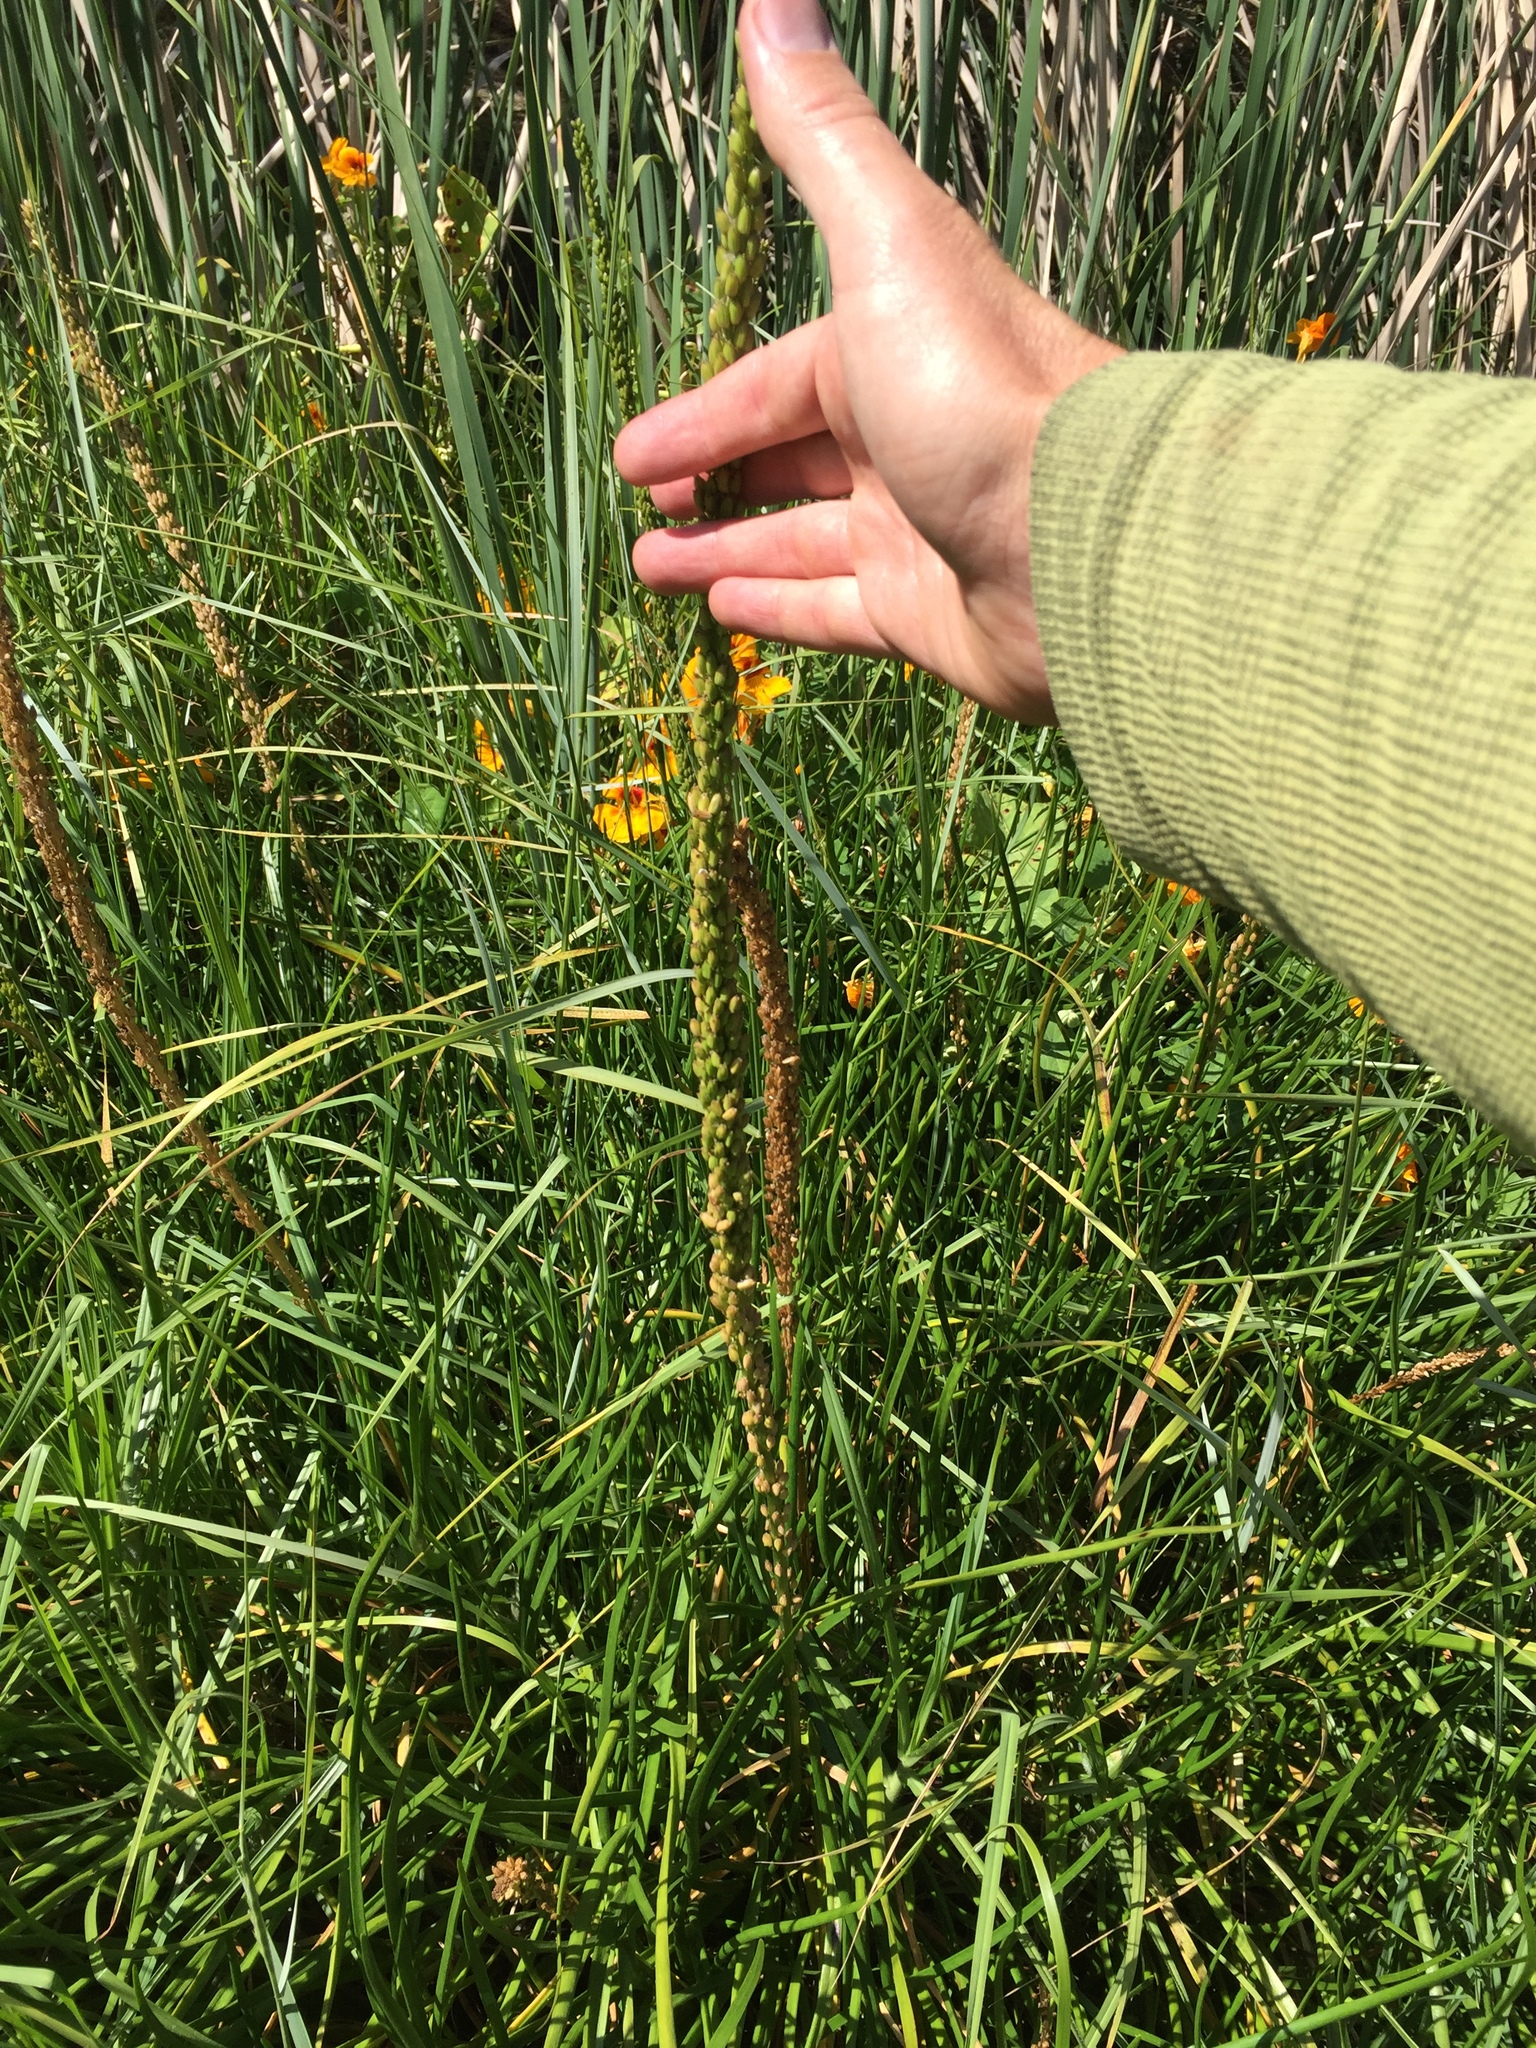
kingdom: Plantae
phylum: Tracheophyta
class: Liliopsida
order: Alismatales
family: Juncaginaceae
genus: Triglochin
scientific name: Triglochin maritima
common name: Sea arrowgrass
